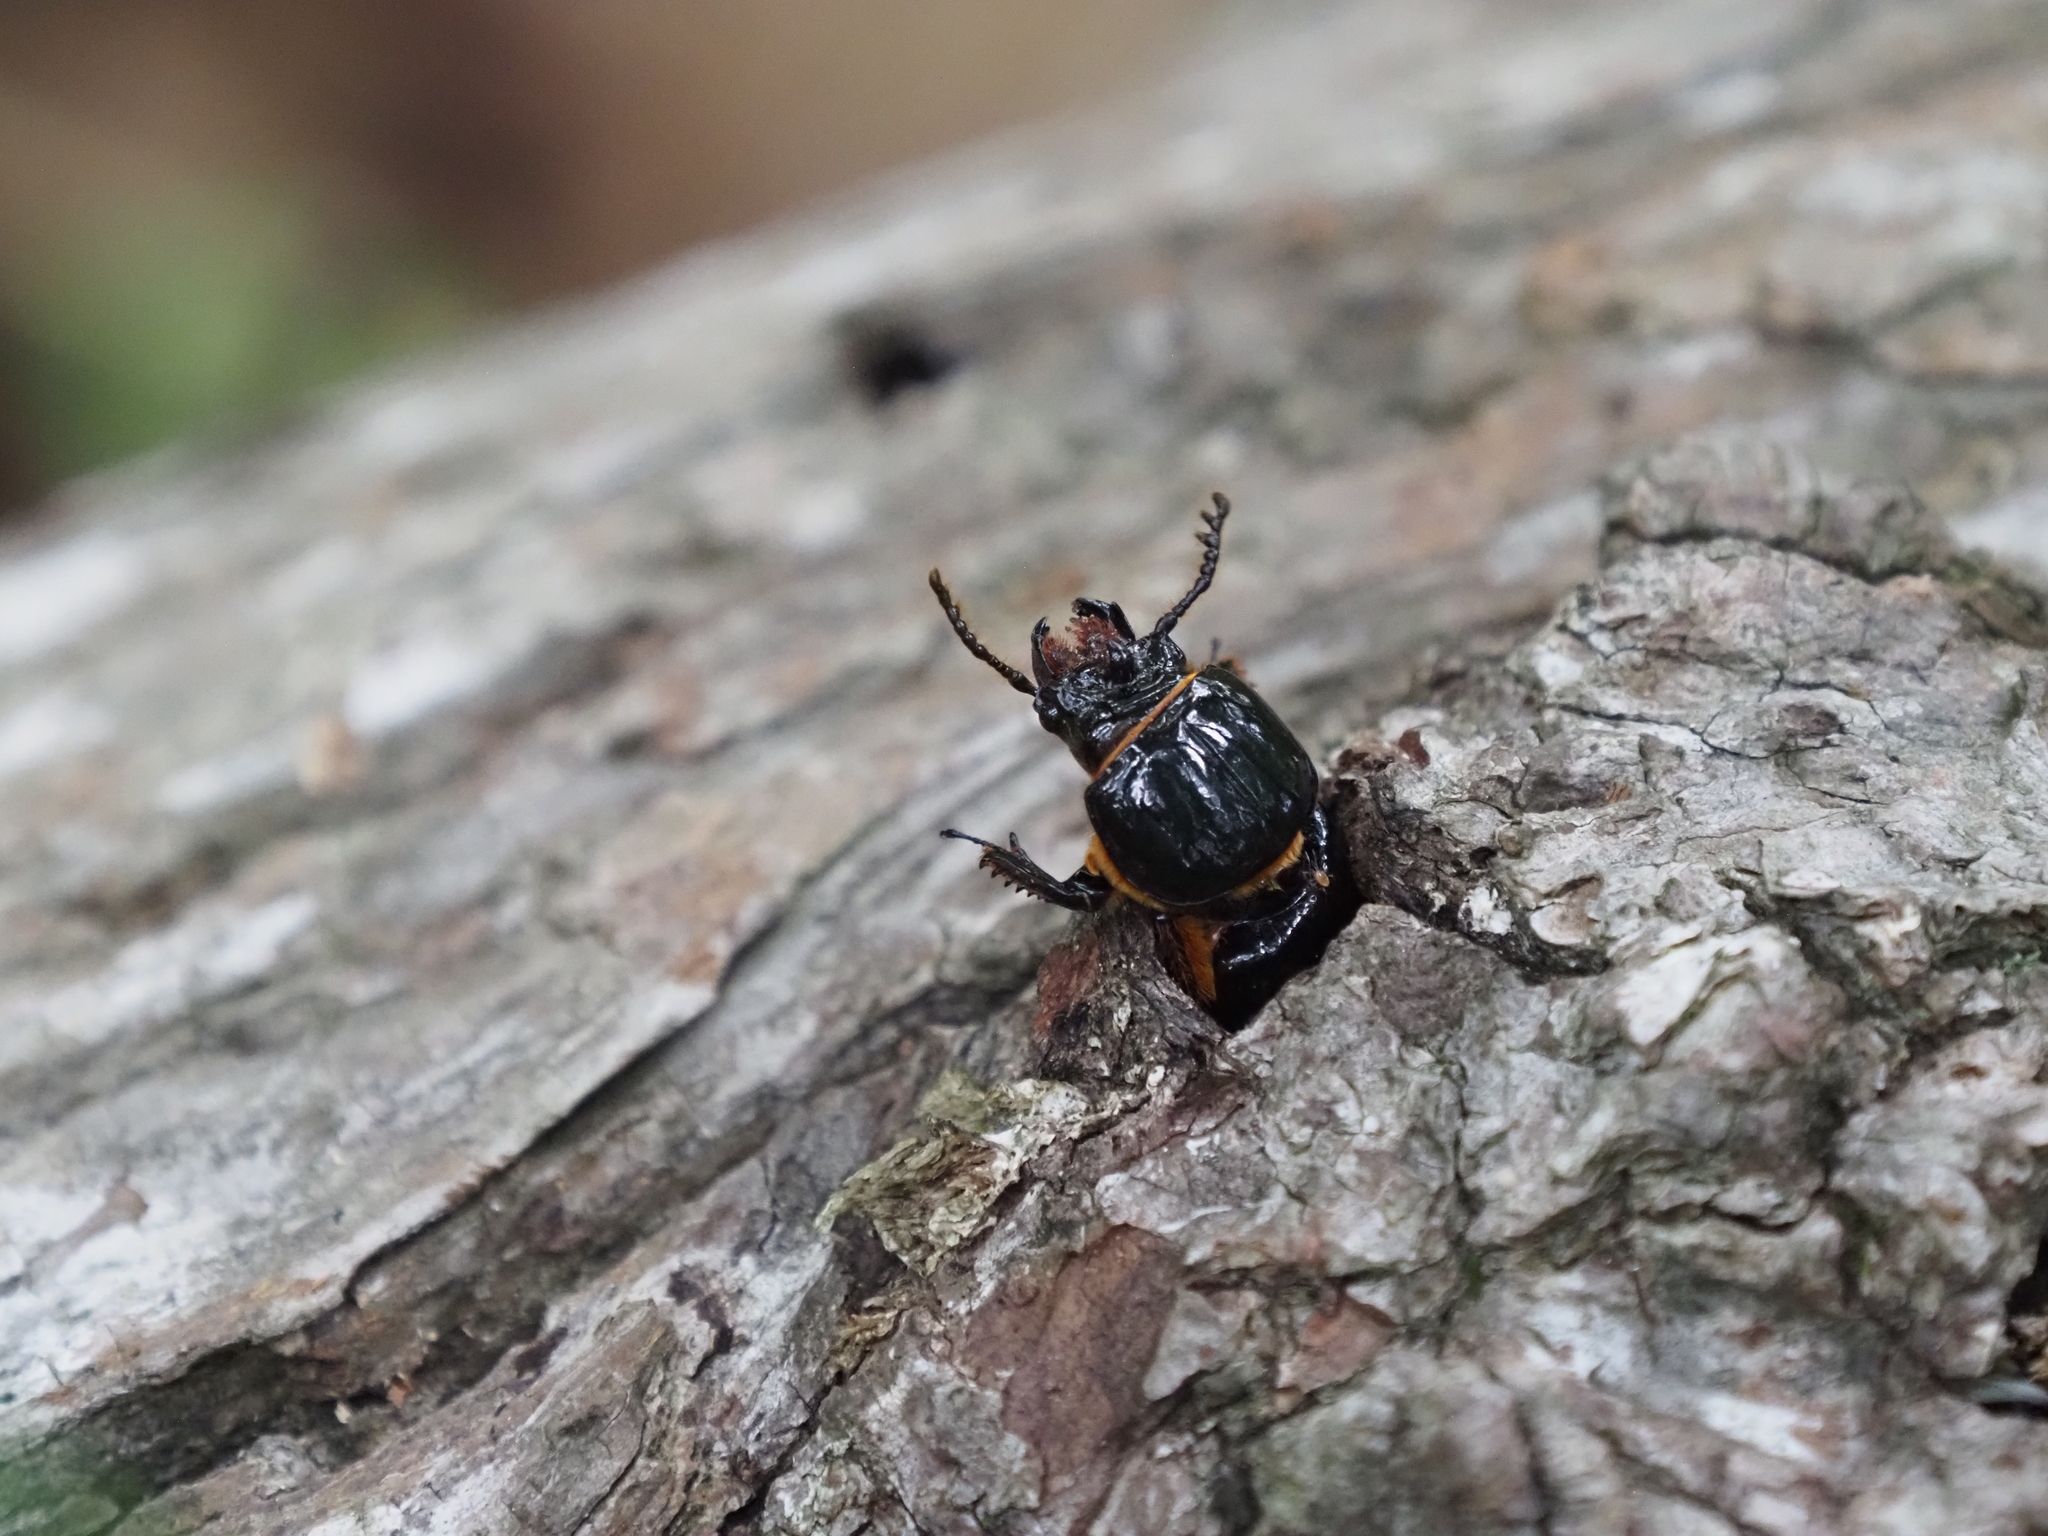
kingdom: Animalia
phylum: Arthropoda
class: Insecta
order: Coleoptera
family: Passalidae
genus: Odontotaenius
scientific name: Odontotaenius disjunctus
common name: Patent leather beetle
